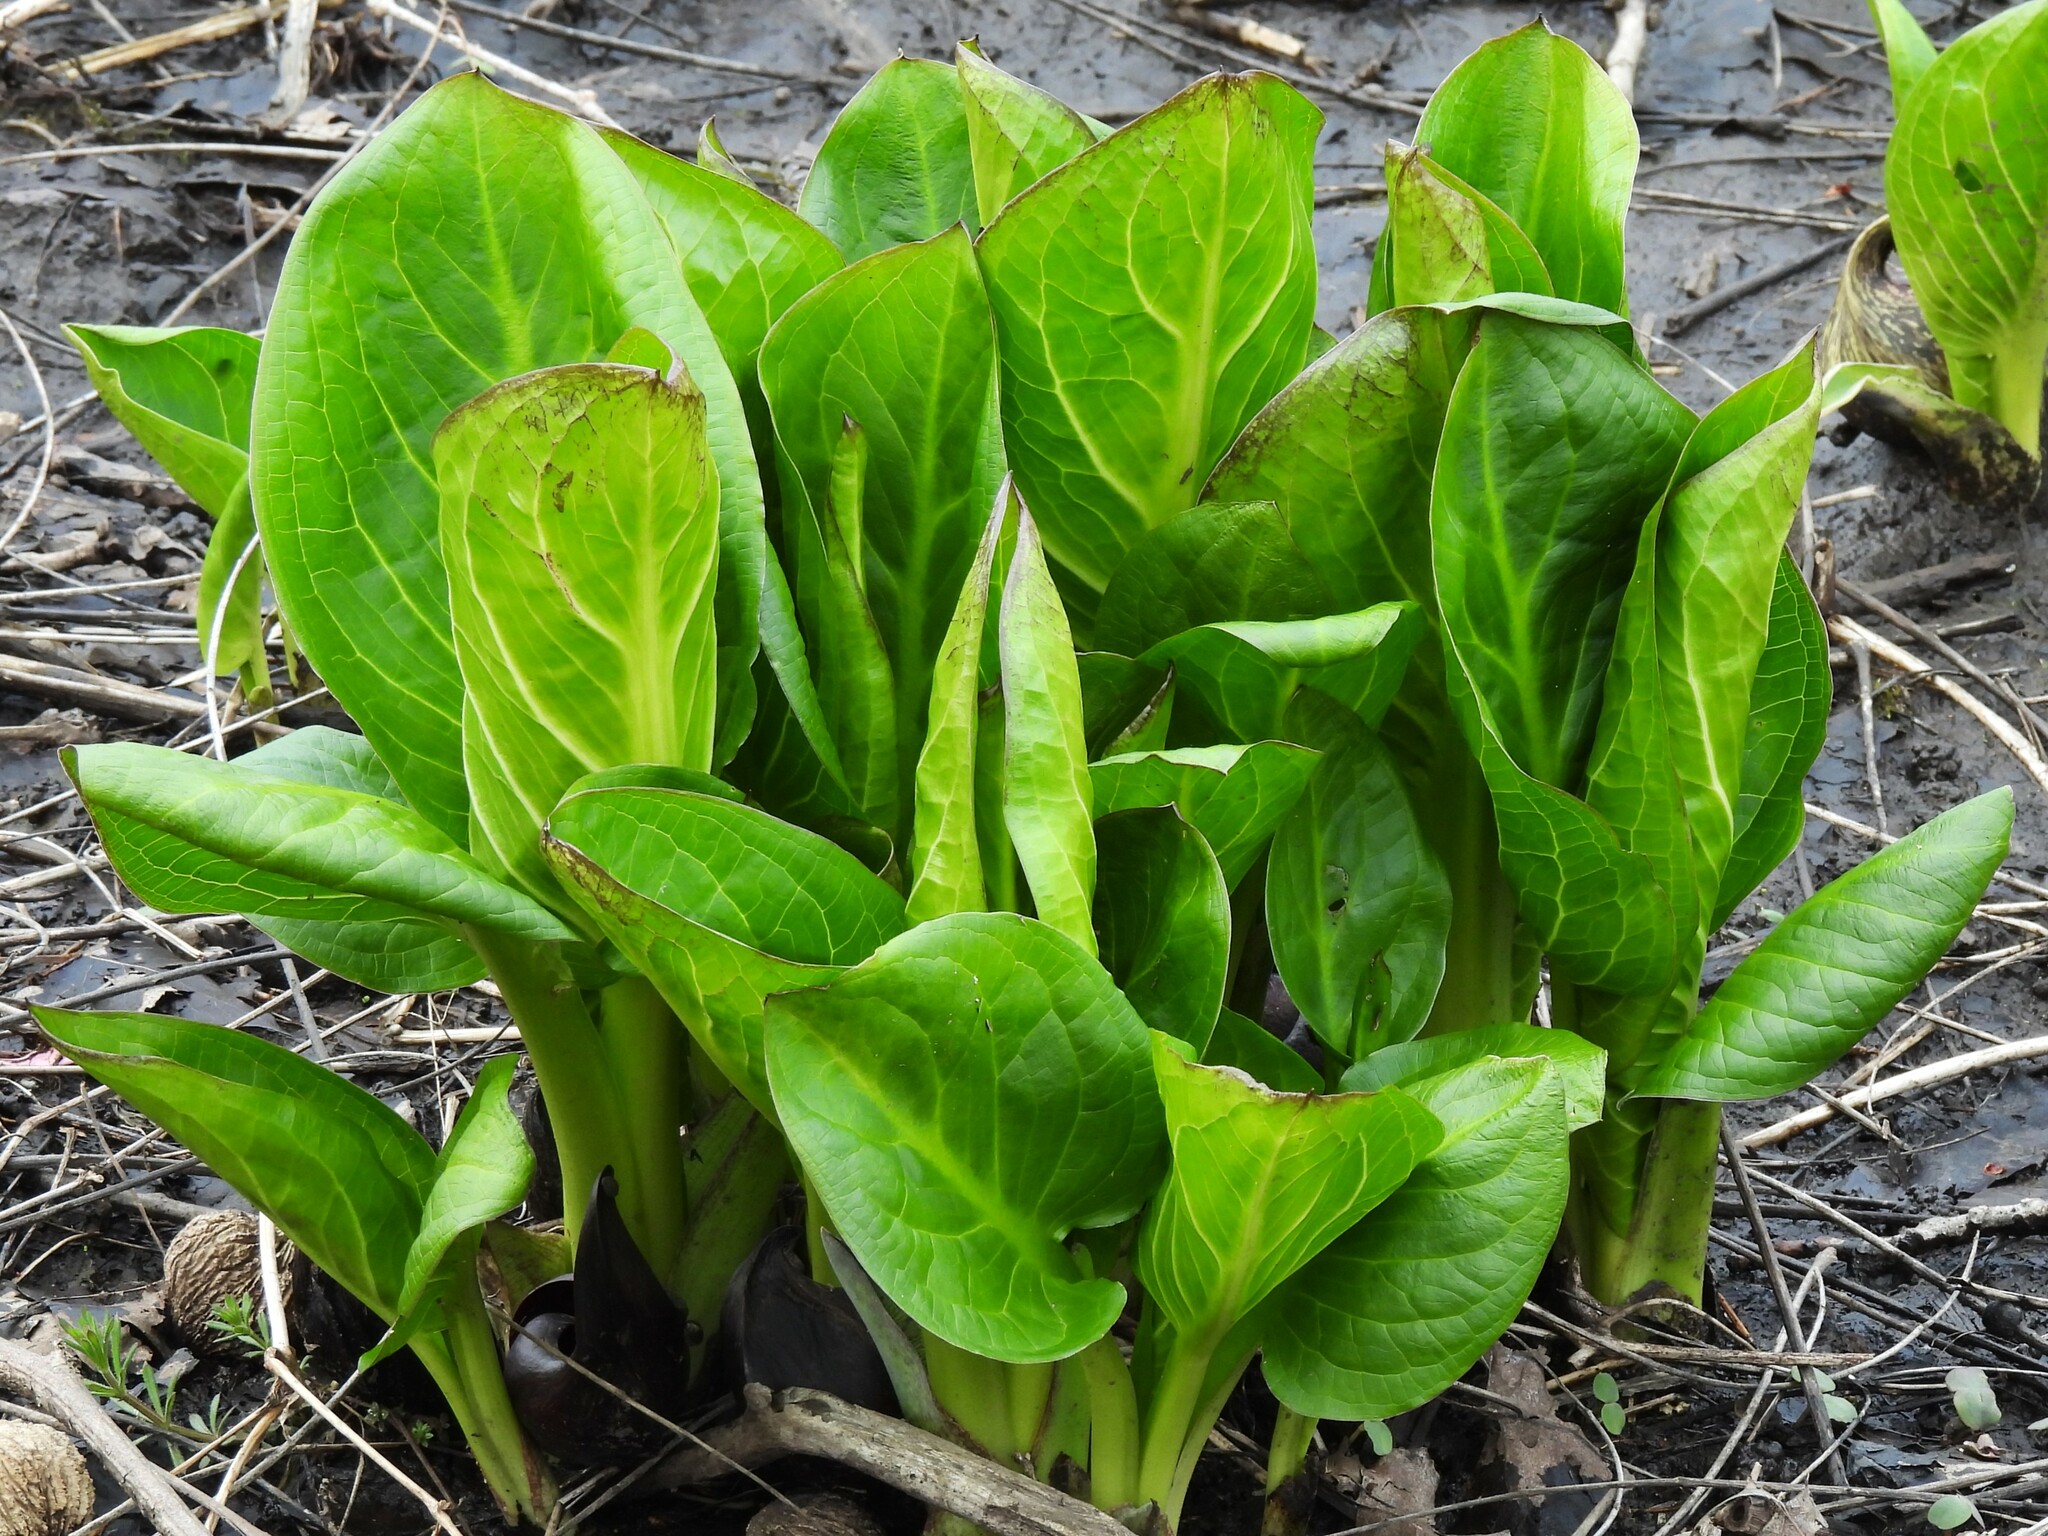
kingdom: Plantae
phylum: Tracheophyta
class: Liliopsida
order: Alismatales
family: Araceae
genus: Symplocarpus
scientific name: Symplocarpus foetidus
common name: Eastern skunk cabbage
